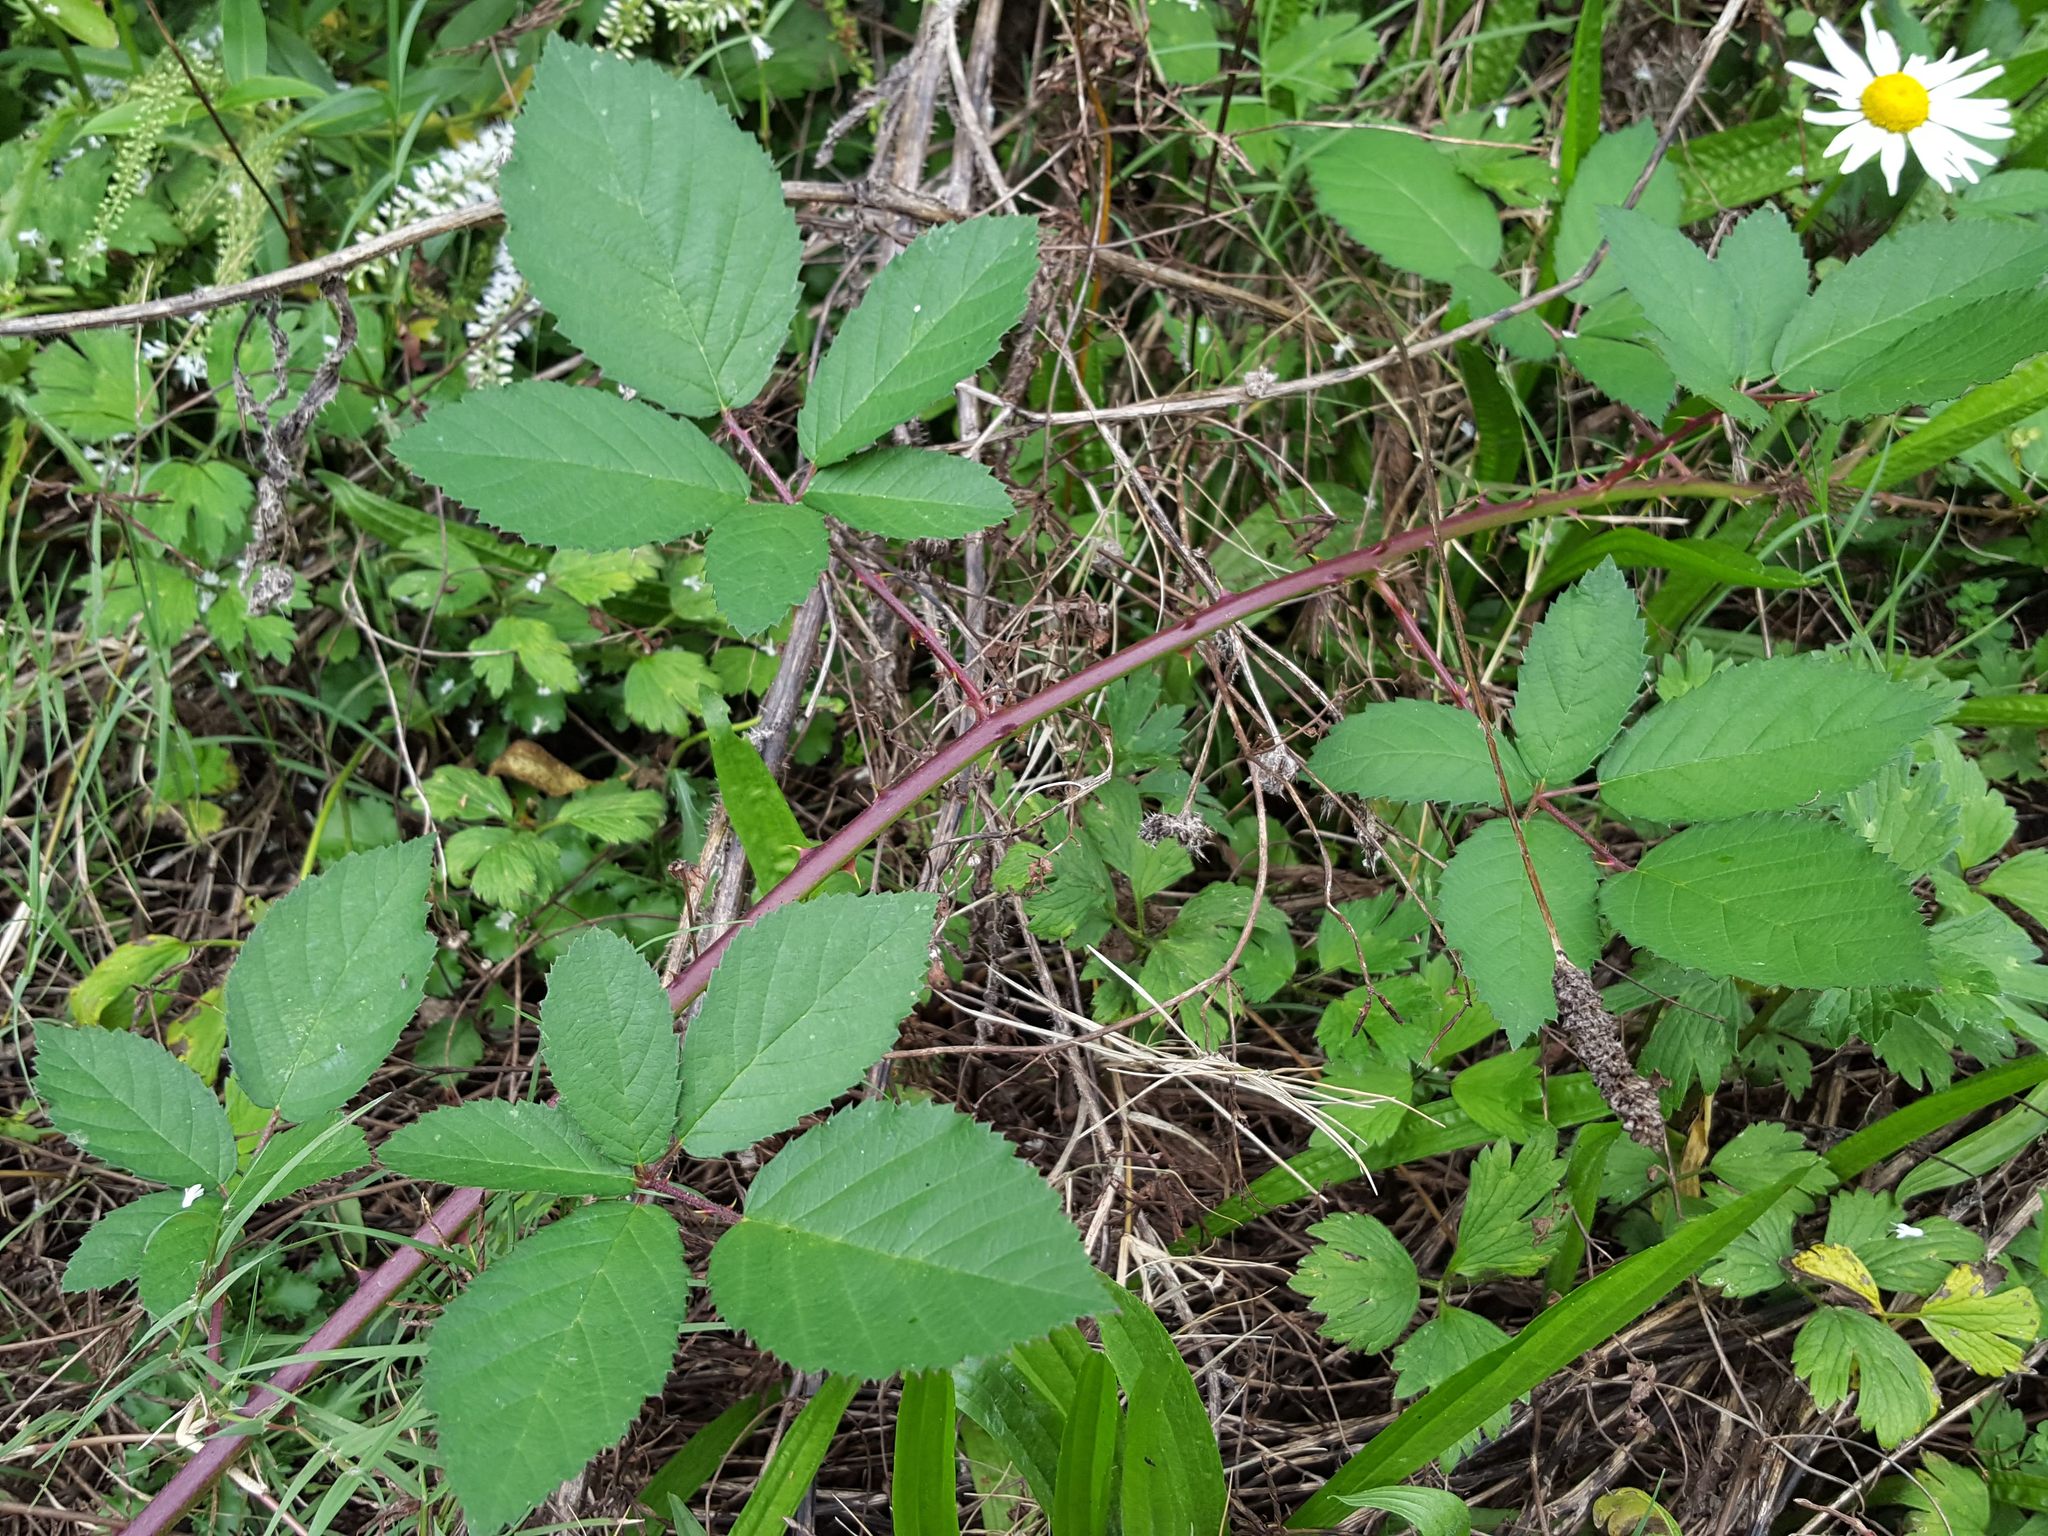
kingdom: Plantae
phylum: Tracheophyta
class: Magnoliopsida
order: Rosales
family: Rosaceae
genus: Rubus
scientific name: Rubus
